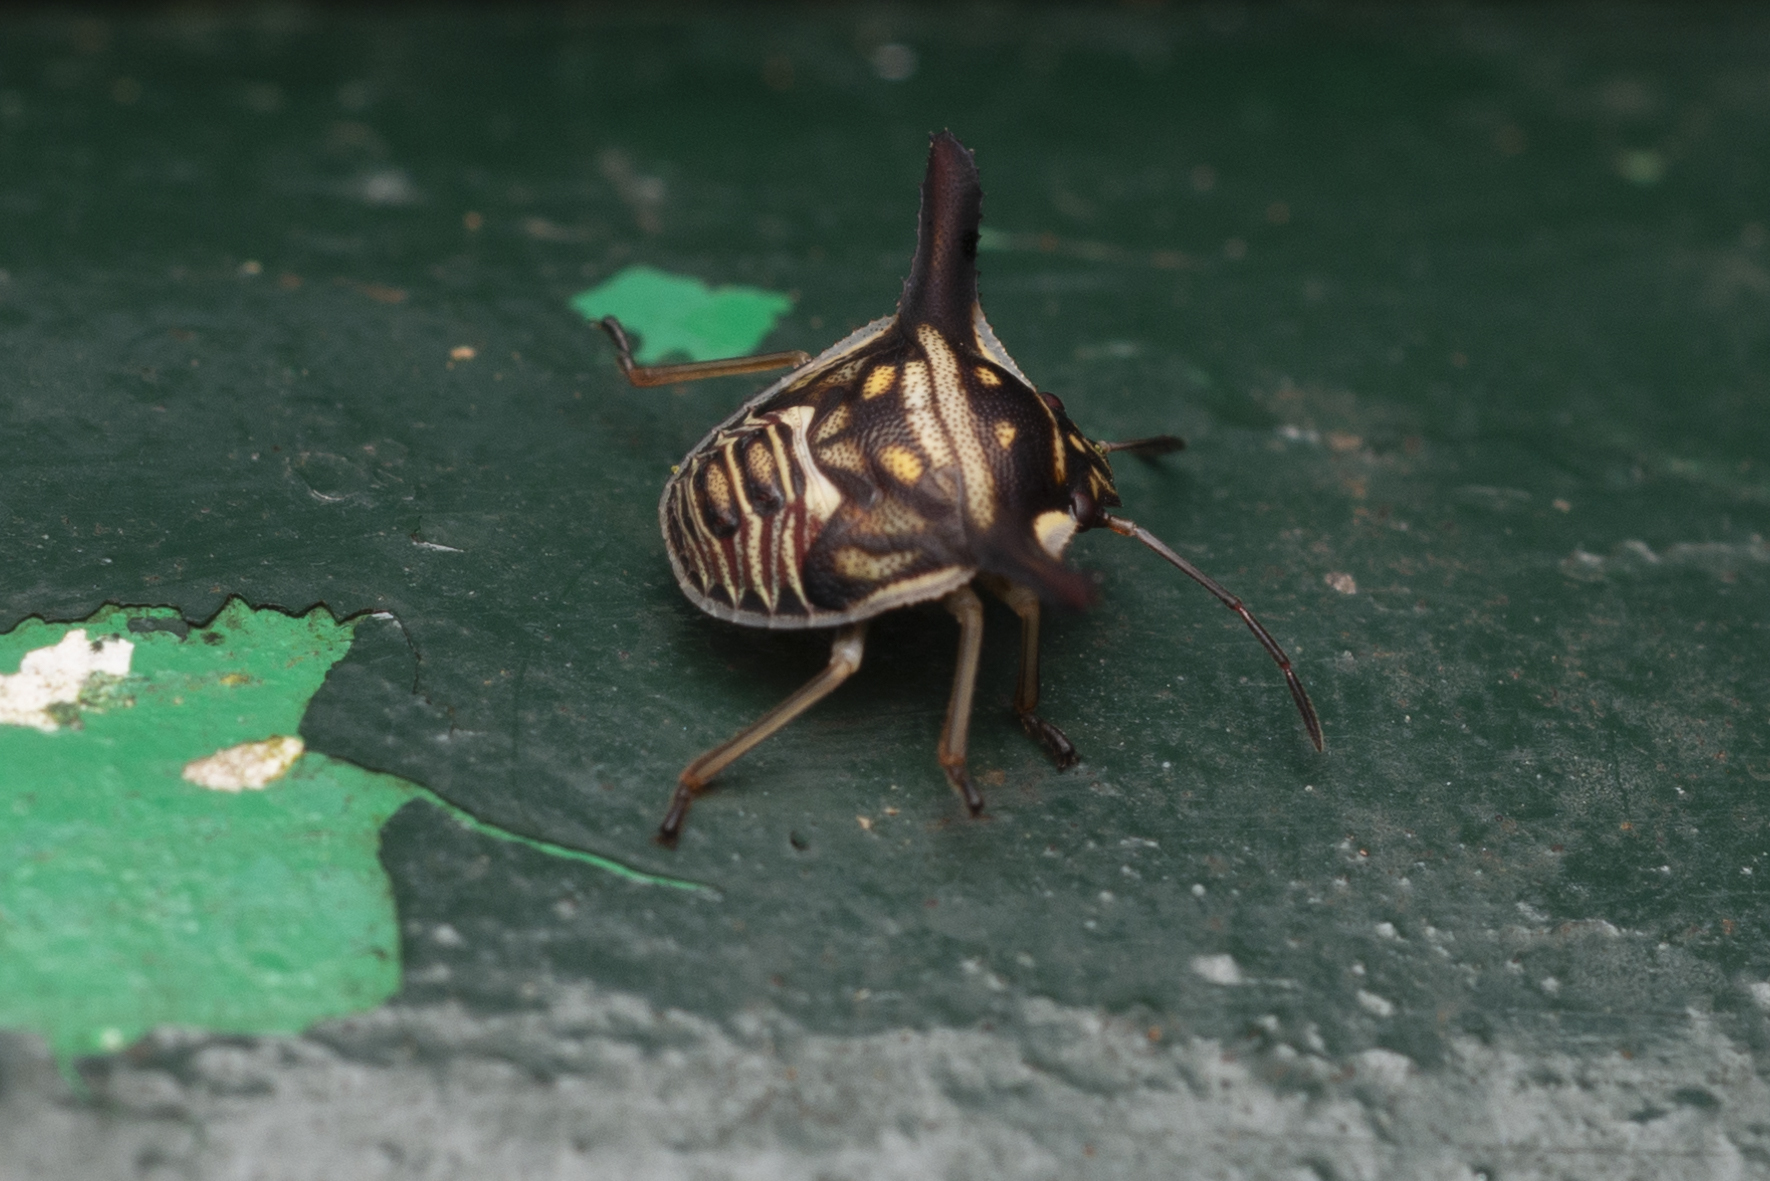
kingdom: Animalia
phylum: Arthropoda
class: Insecta
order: Hemiptera
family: Pentatomidae
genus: Alcimocoris
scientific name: Alcimocoris
